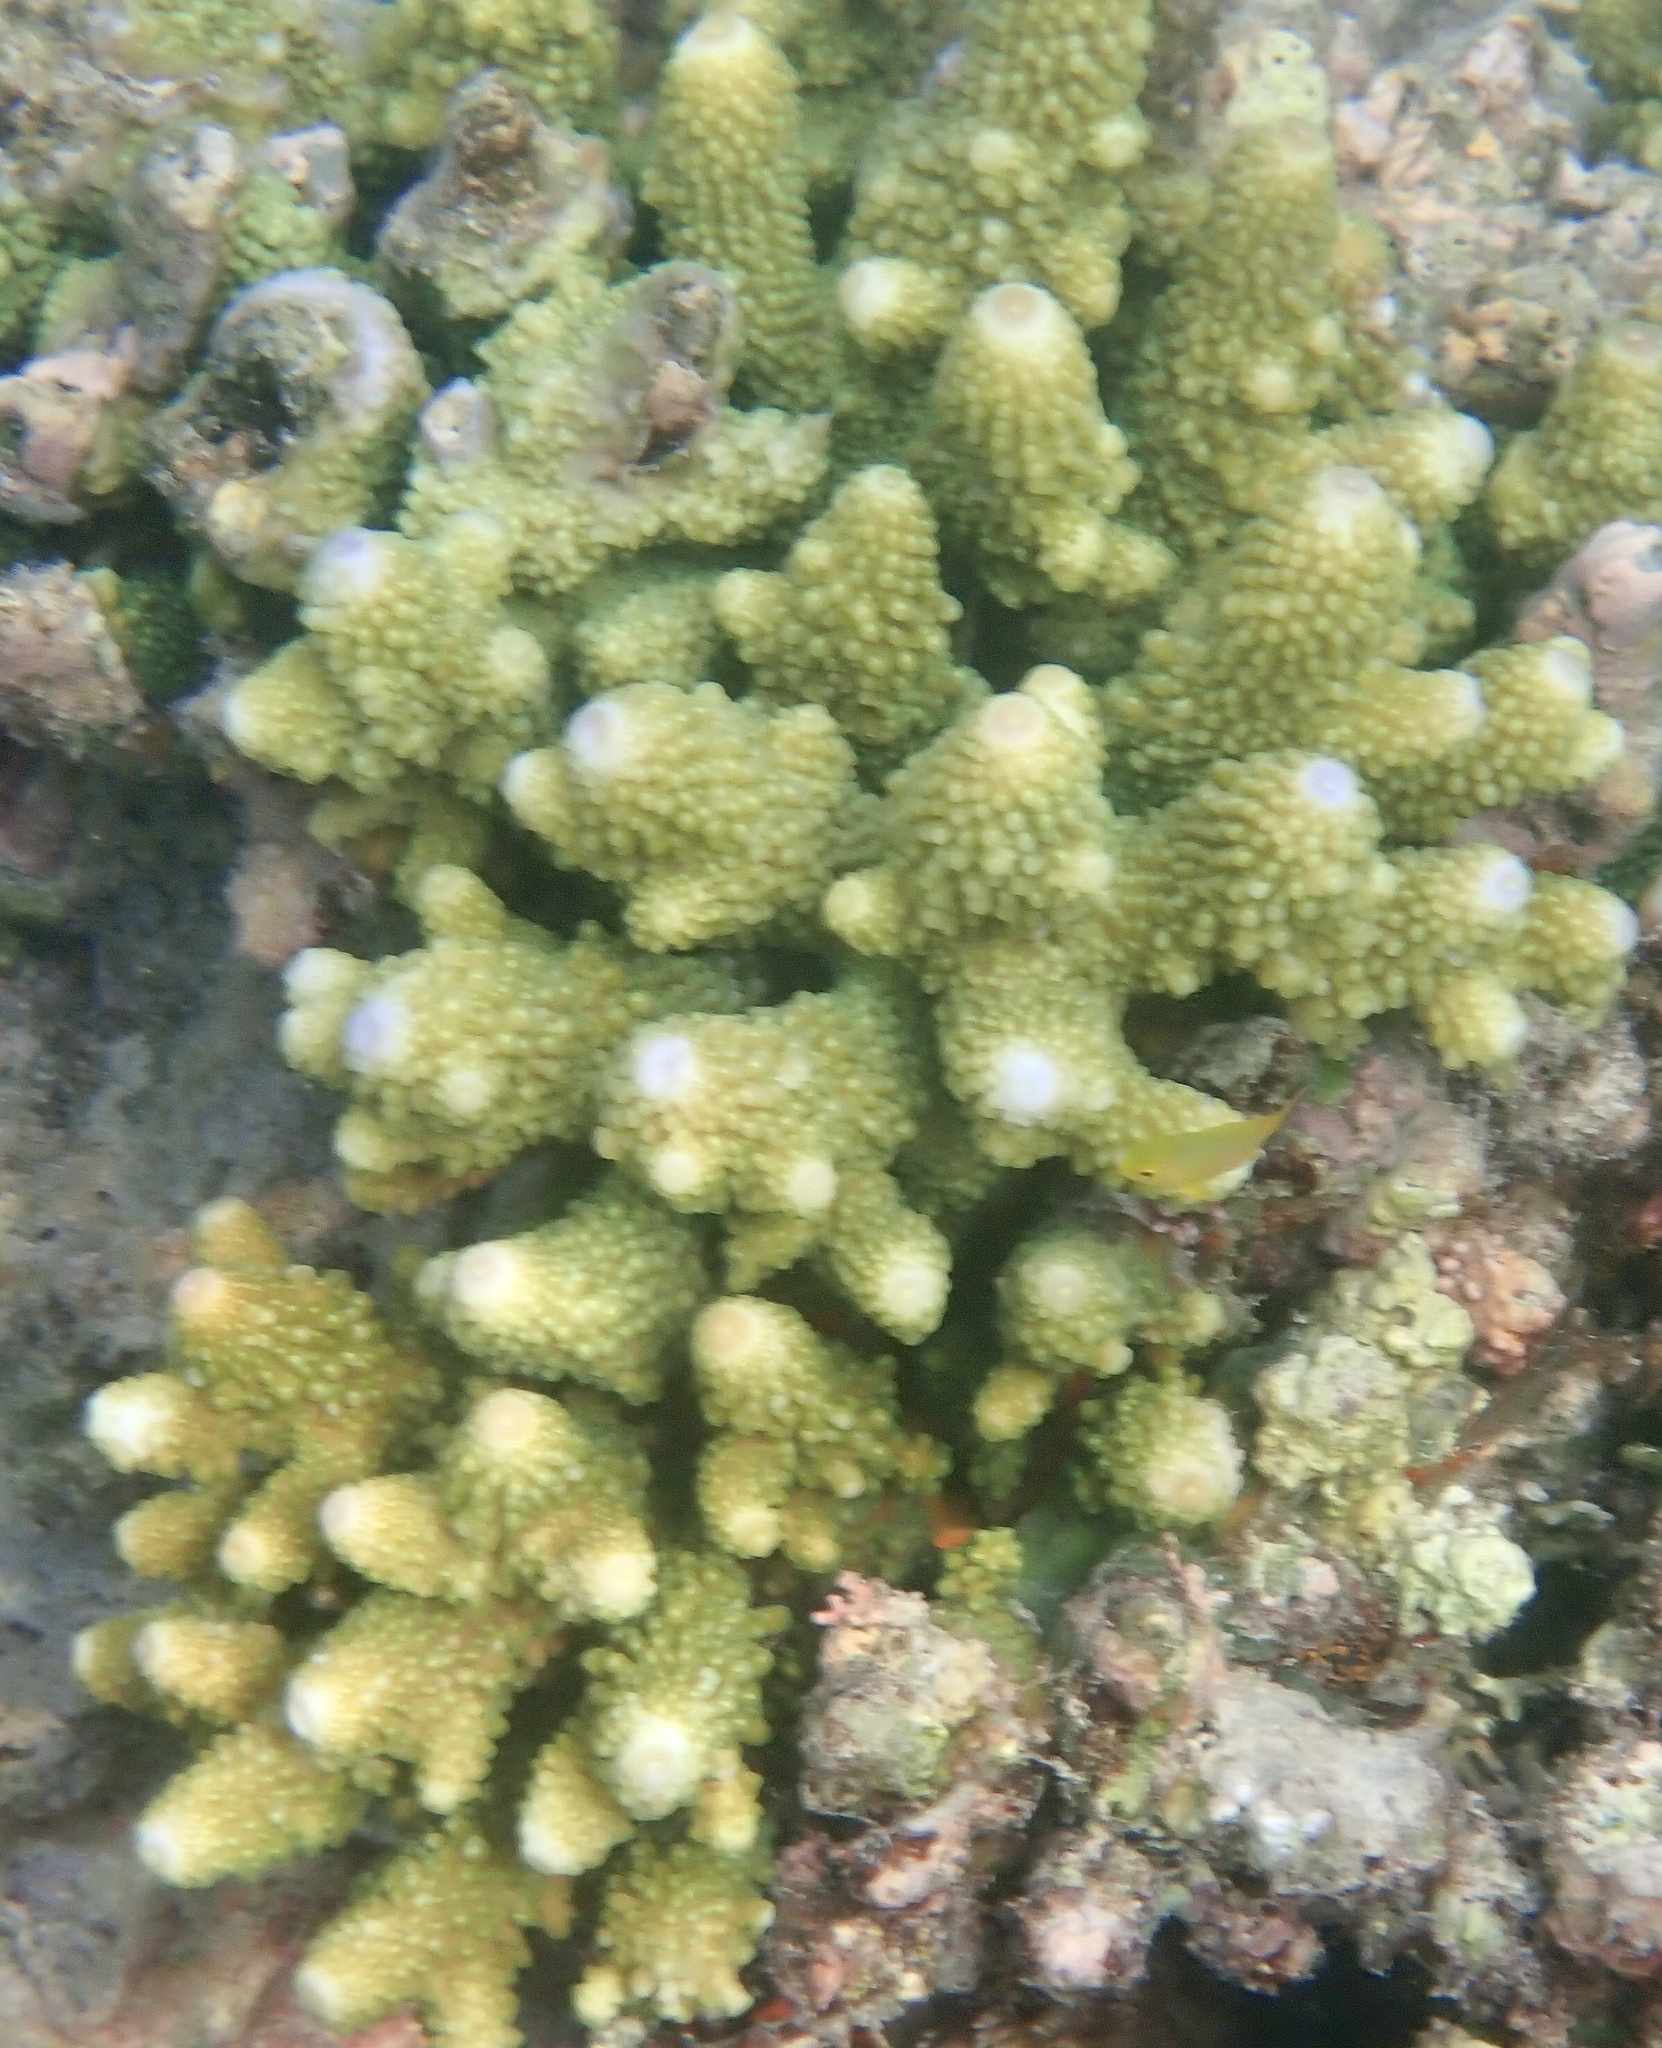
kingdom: Animalia
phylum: Cnidaria
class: Anthozoa
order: Scleractinia
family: Acroporidae
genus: Acropora
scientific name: Acropora humilis
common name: Finger coral
